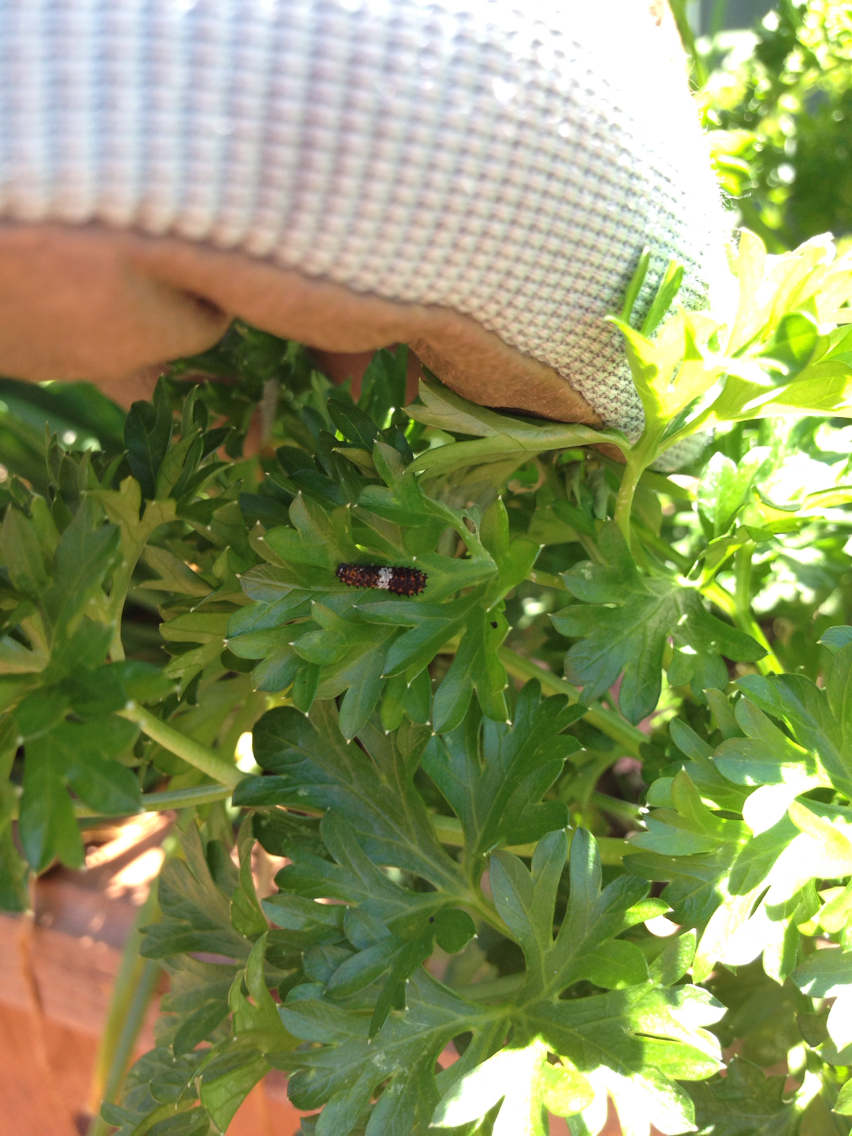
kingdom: Animalia
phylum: Arthropoda
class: Insecta
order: Lepidoptera
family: Papilionidae
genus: Papilio
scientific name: Papilio polyxenes
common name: Black swallowtail
